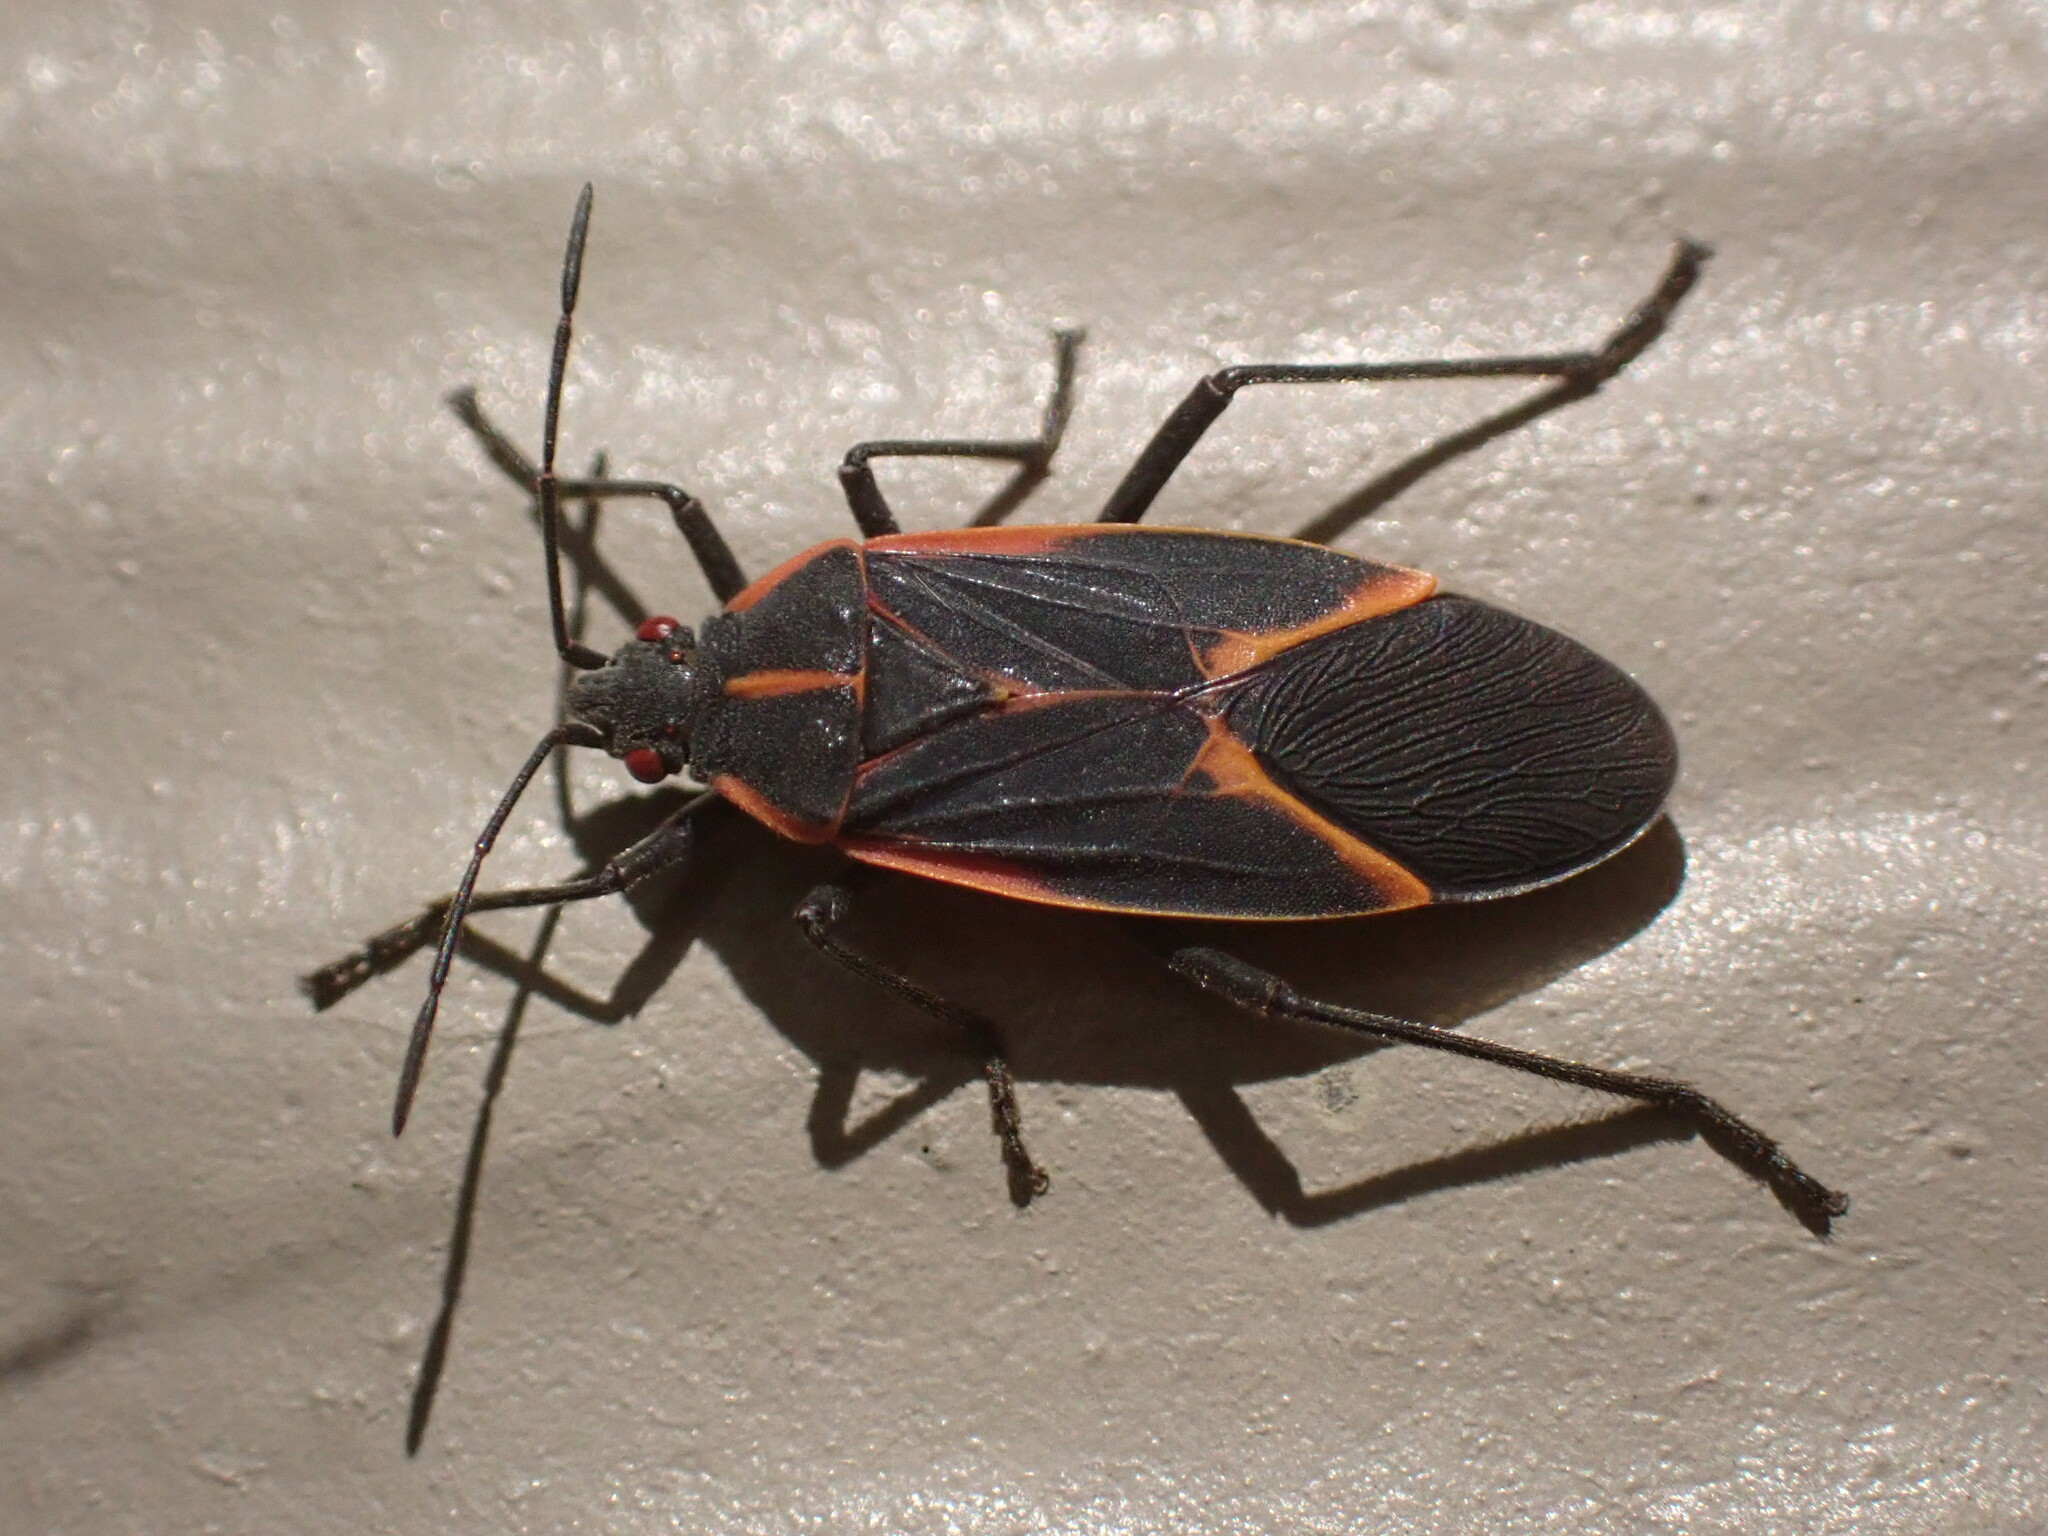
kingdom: Animalia
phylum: Arthropoda
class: Insecta
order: Hemiptera
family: Rhopalidae
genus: Boisea
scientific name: Boisea trivittata
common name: Boxelder bug
